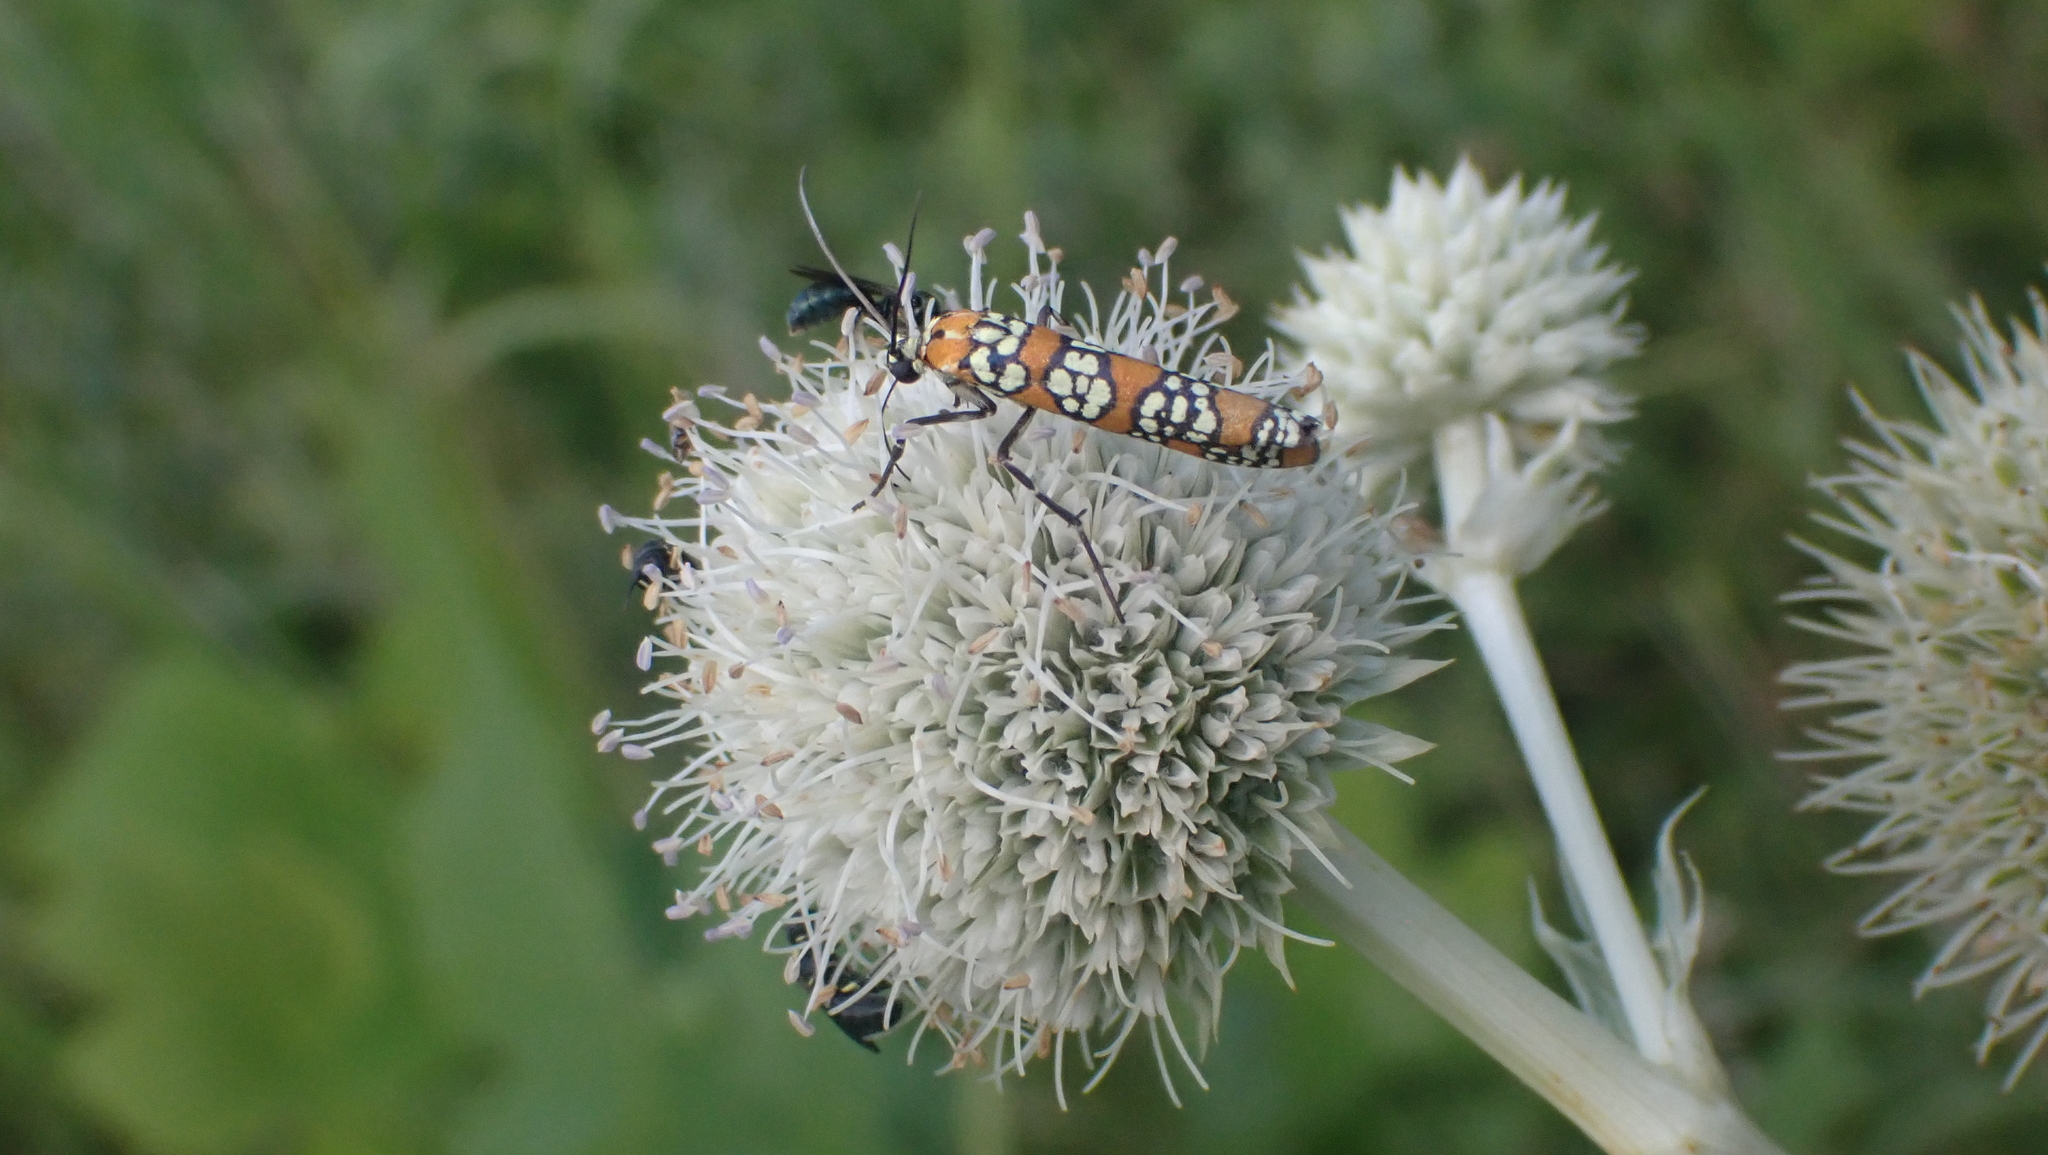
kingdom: Animalia
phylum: Arthropoda
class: Insecta
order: Lepidoptera
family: Attevidae
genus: Atteva
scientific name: Atteva punctella
